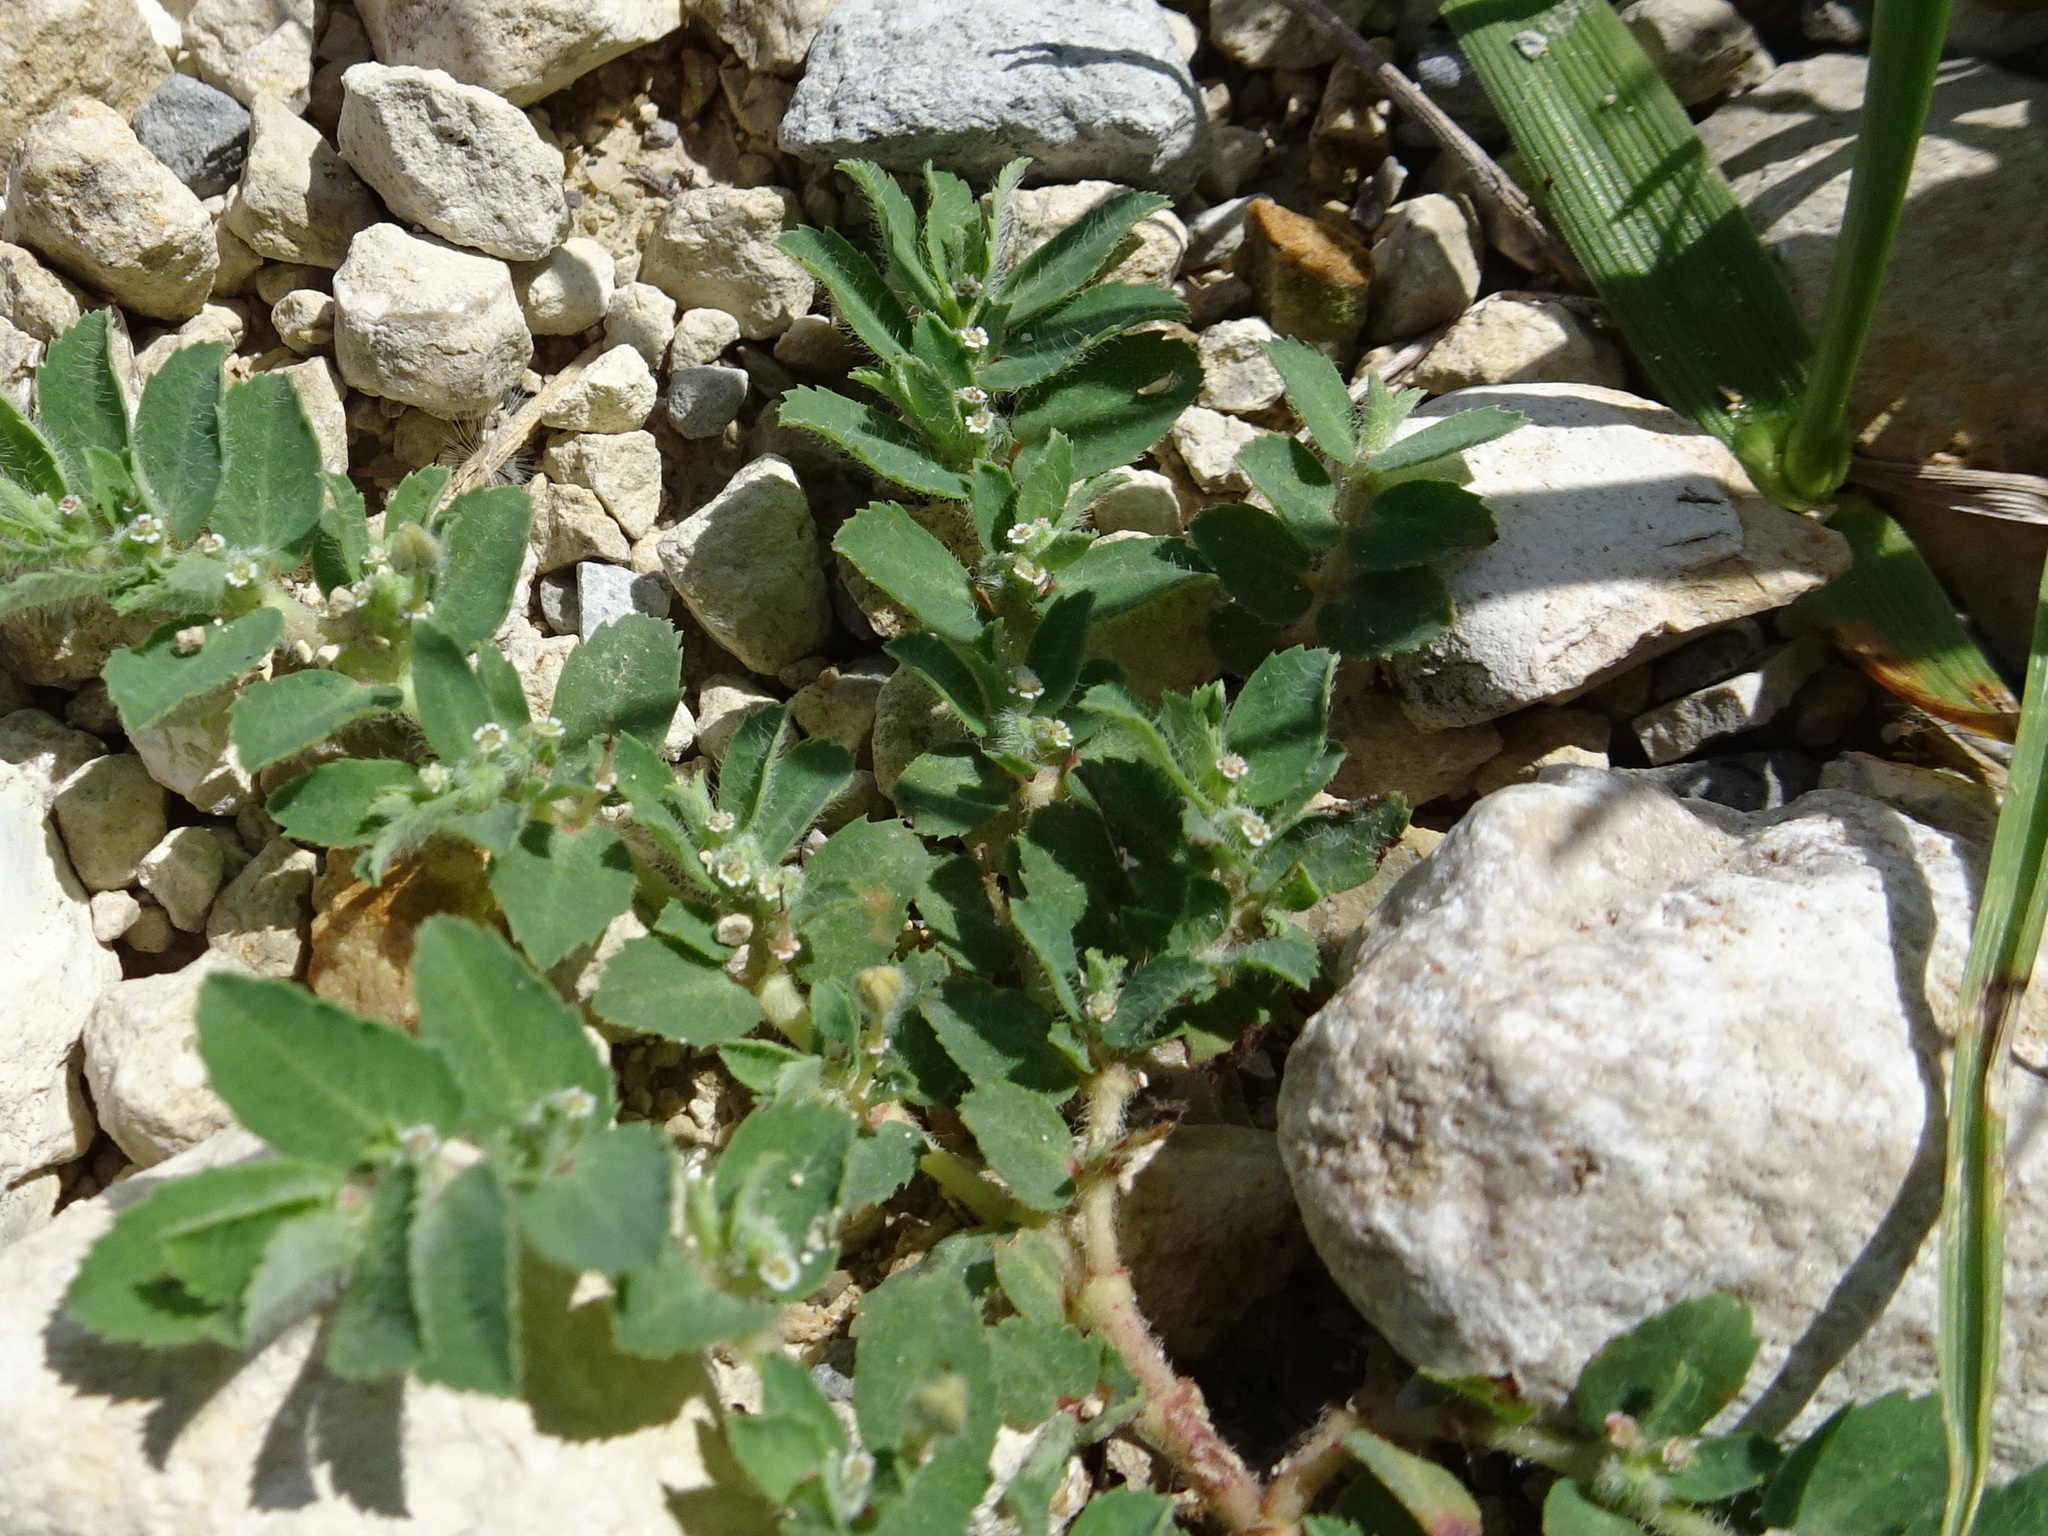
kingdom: Plantae
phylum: Tracheophyta
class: Magnoliopsida
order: Malpighiales
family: Euphorbiaceae
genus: Euphorbia
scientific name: Euphorbia stictospora
